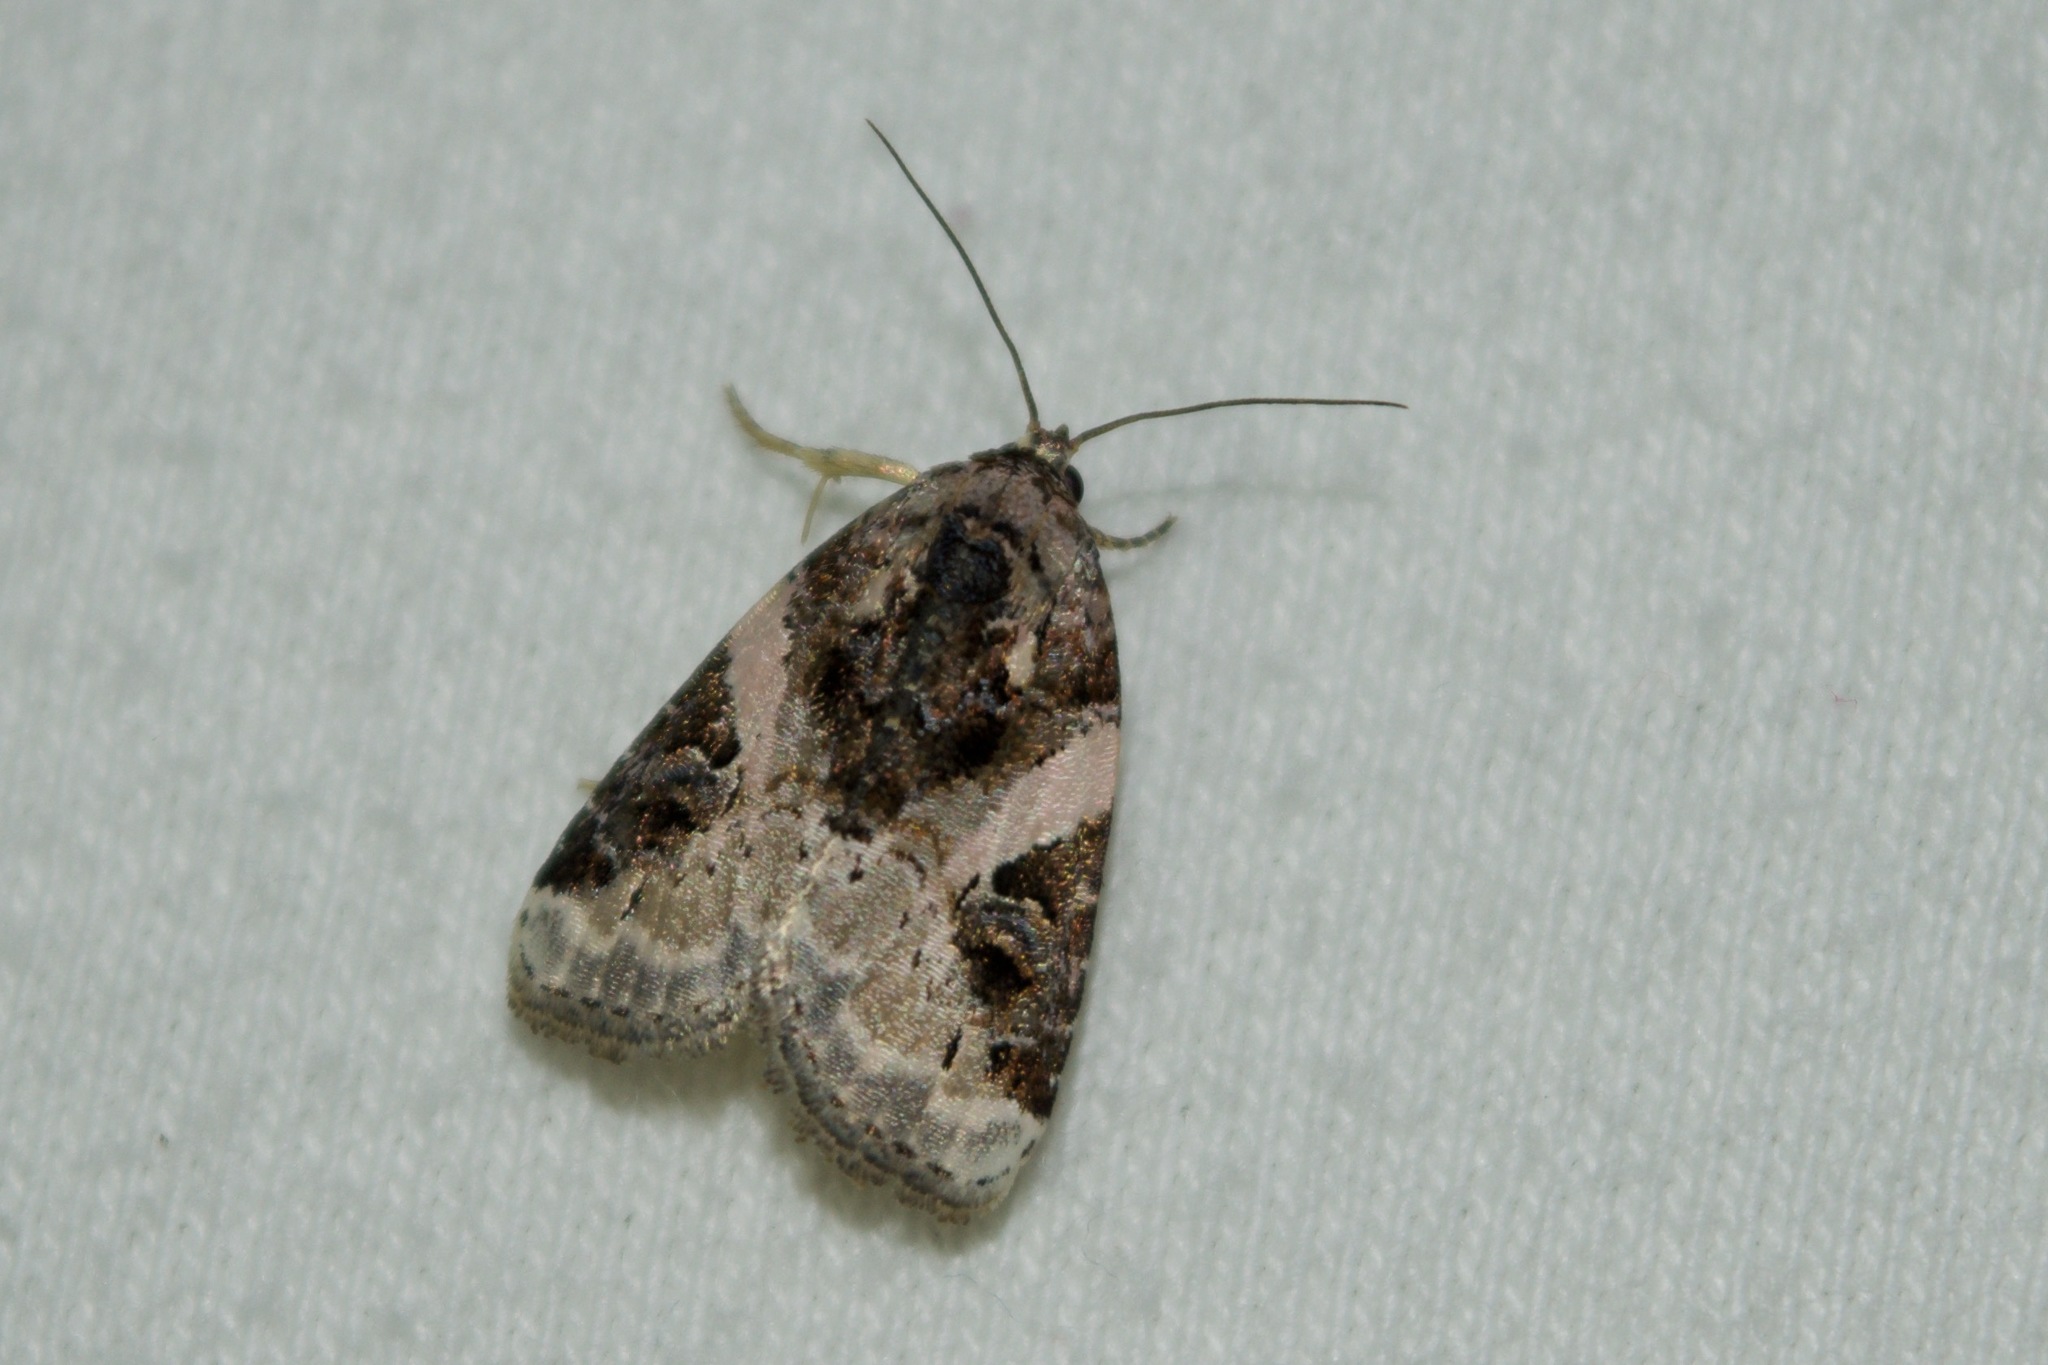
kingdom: Animalia
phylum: Arthropoda
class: Insecta
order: Lepidoptera
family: Noctuidae
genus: Pseudeustrotia
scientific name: Pseudeustrotia carneola
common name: Pink-barred lithacodia moth
